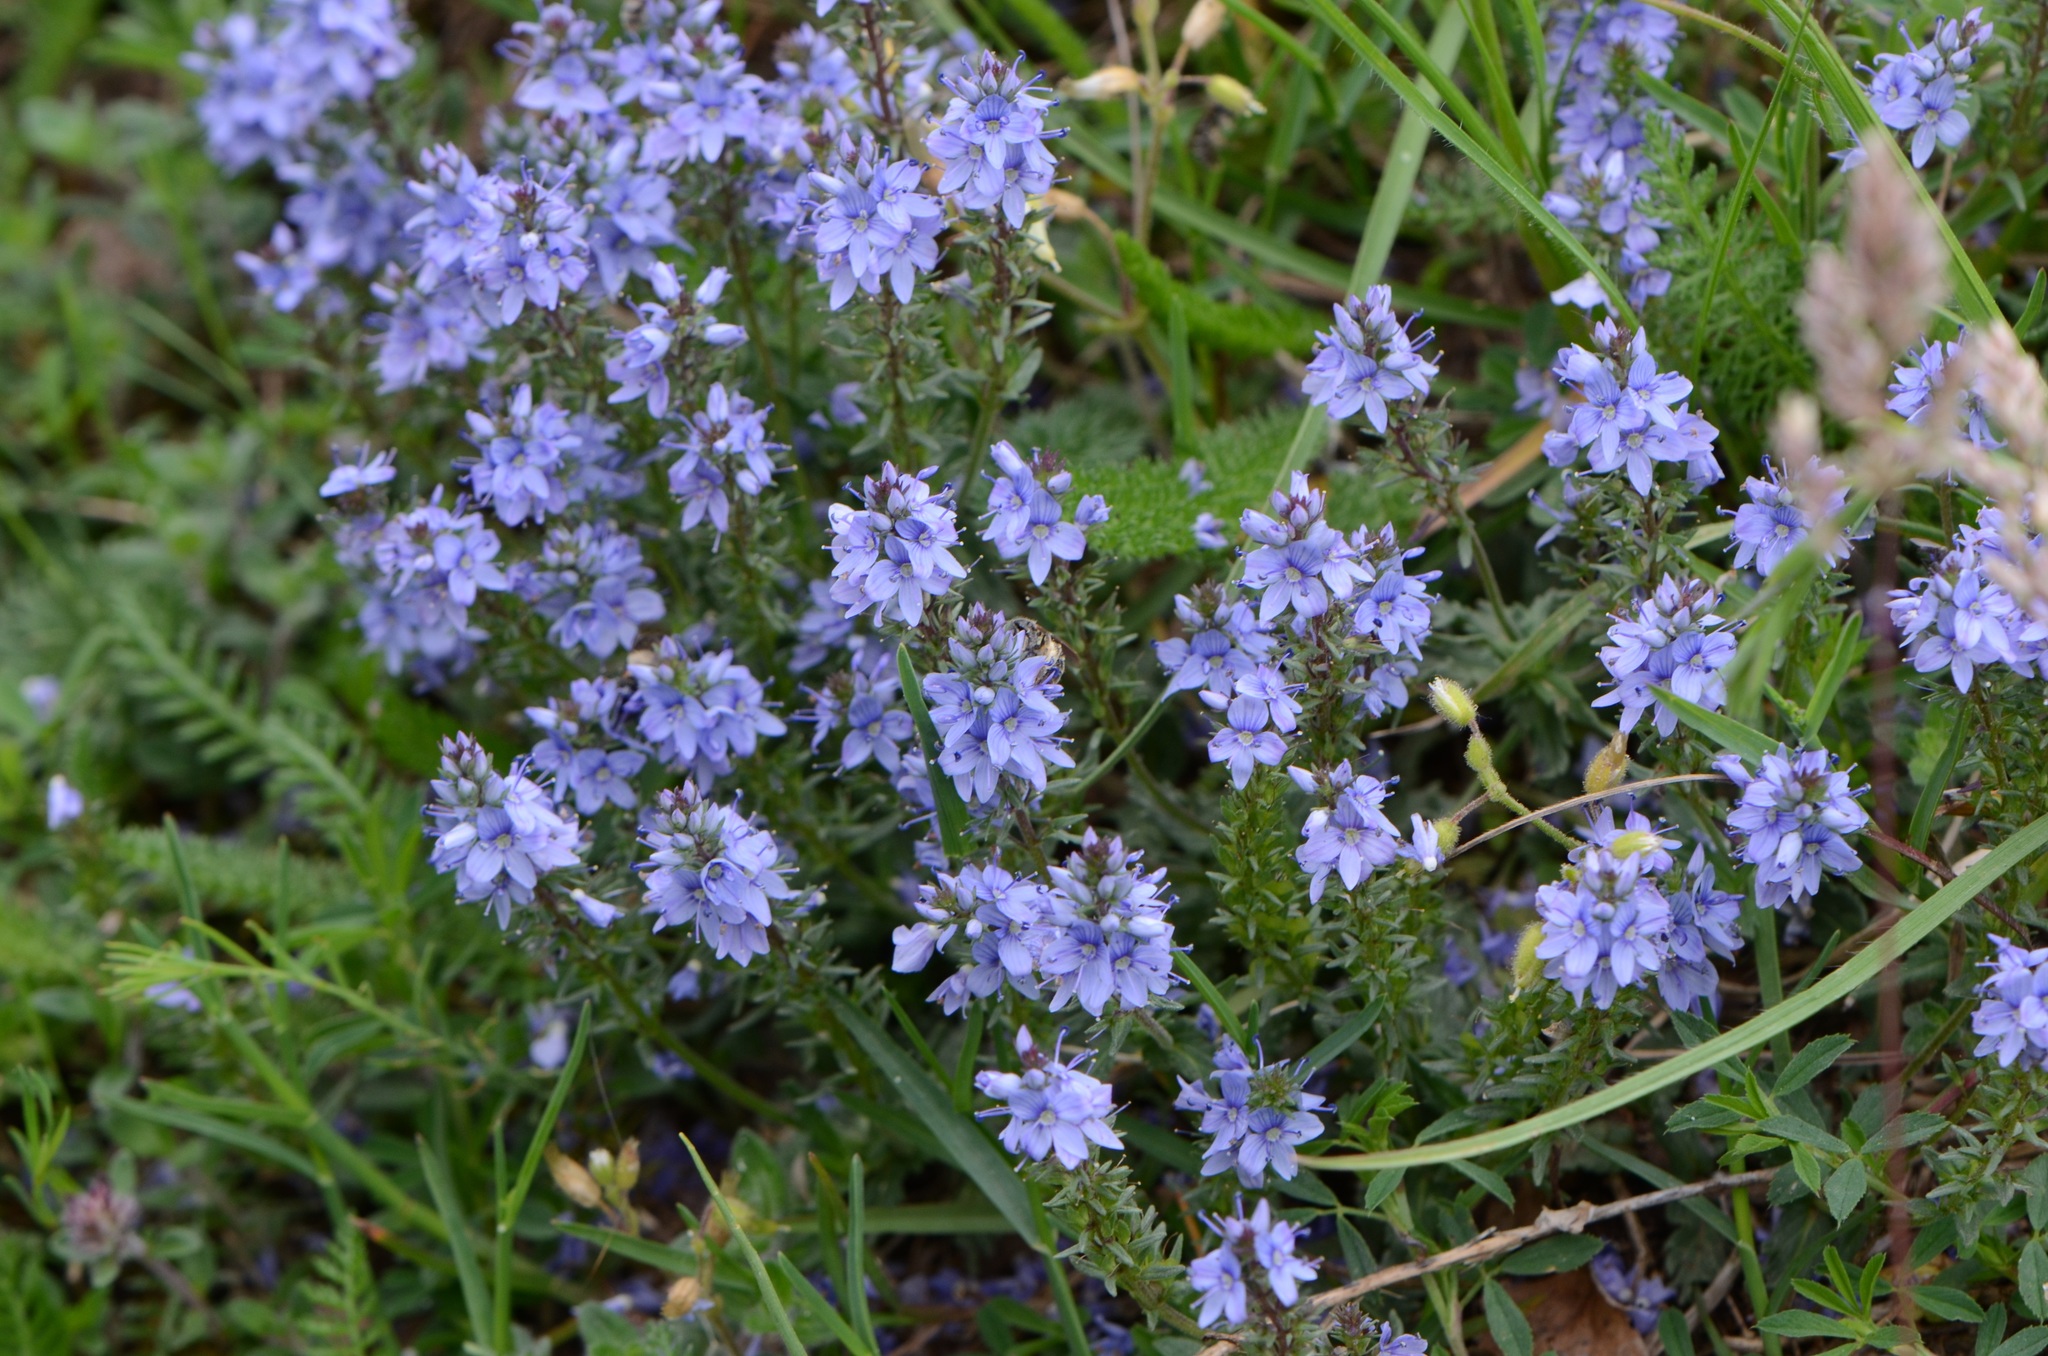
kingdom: Plantae
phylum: Tracheophyta
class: Magnoliopsida
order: Lamiales
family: Plantaginaceae
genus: Veronica
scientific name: Veronica prostrata
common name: Prostrate speedwell
